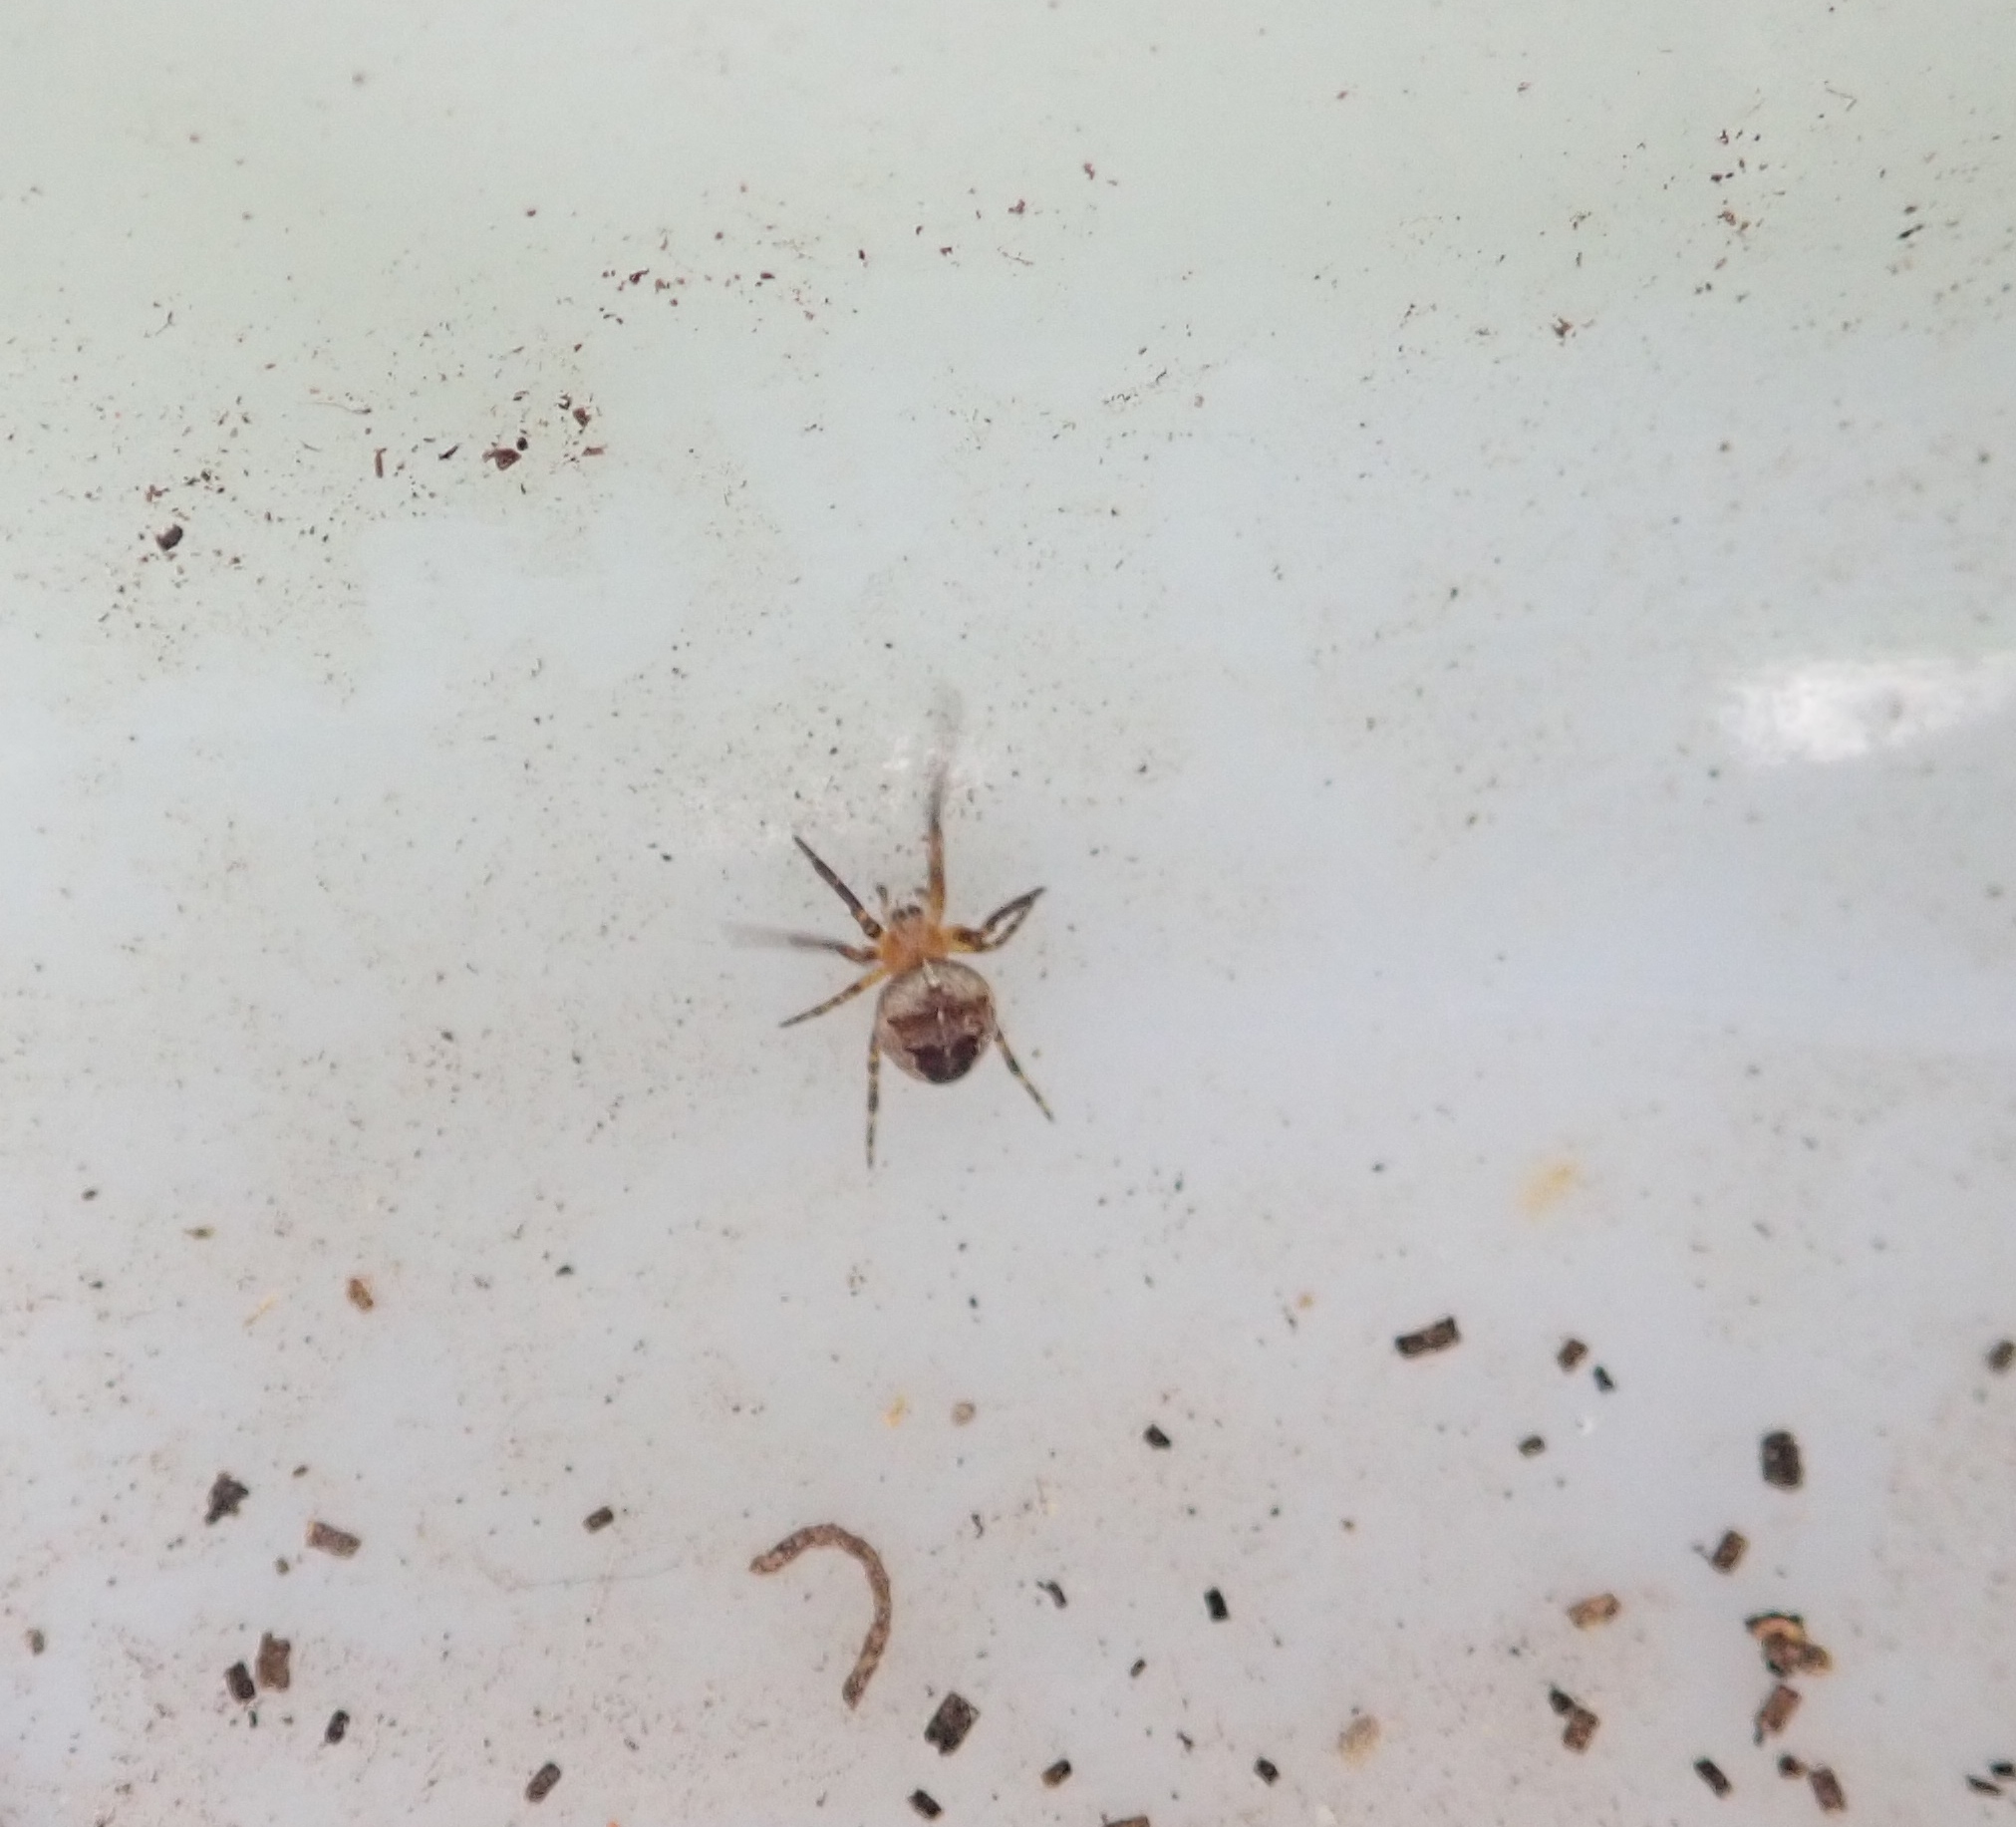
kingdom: Animalia
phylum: Arthropoda
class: Arachnida
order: Araneae
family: Araneidae
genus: Araneus
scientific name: Araneus diadematus
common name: Cross orbweaver
